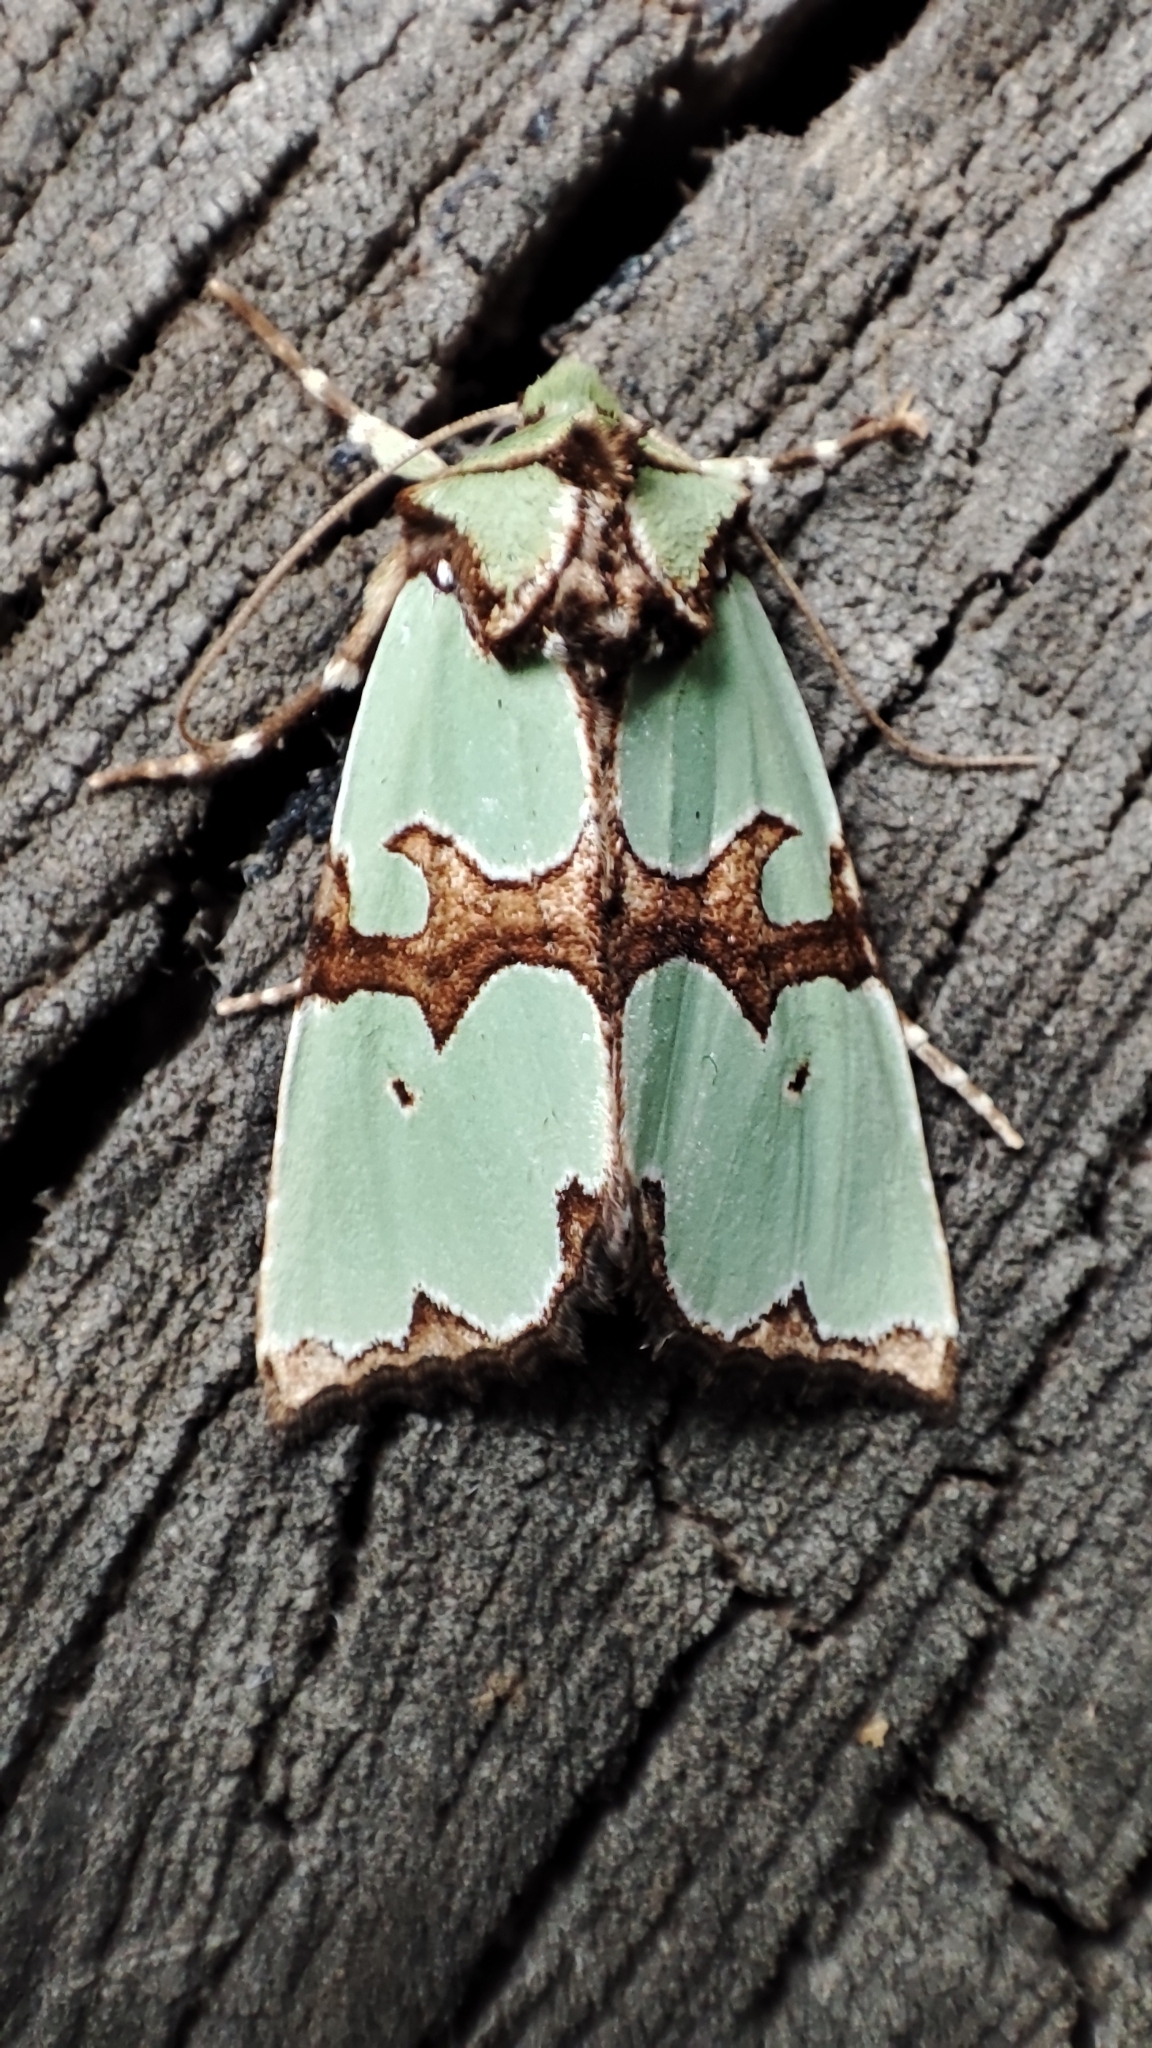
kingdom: Animalia
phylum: Arthropoda
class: Insecta
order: Lepidoptera
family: Noctuidae
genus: Staurophora
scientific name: Staurophora celsia
